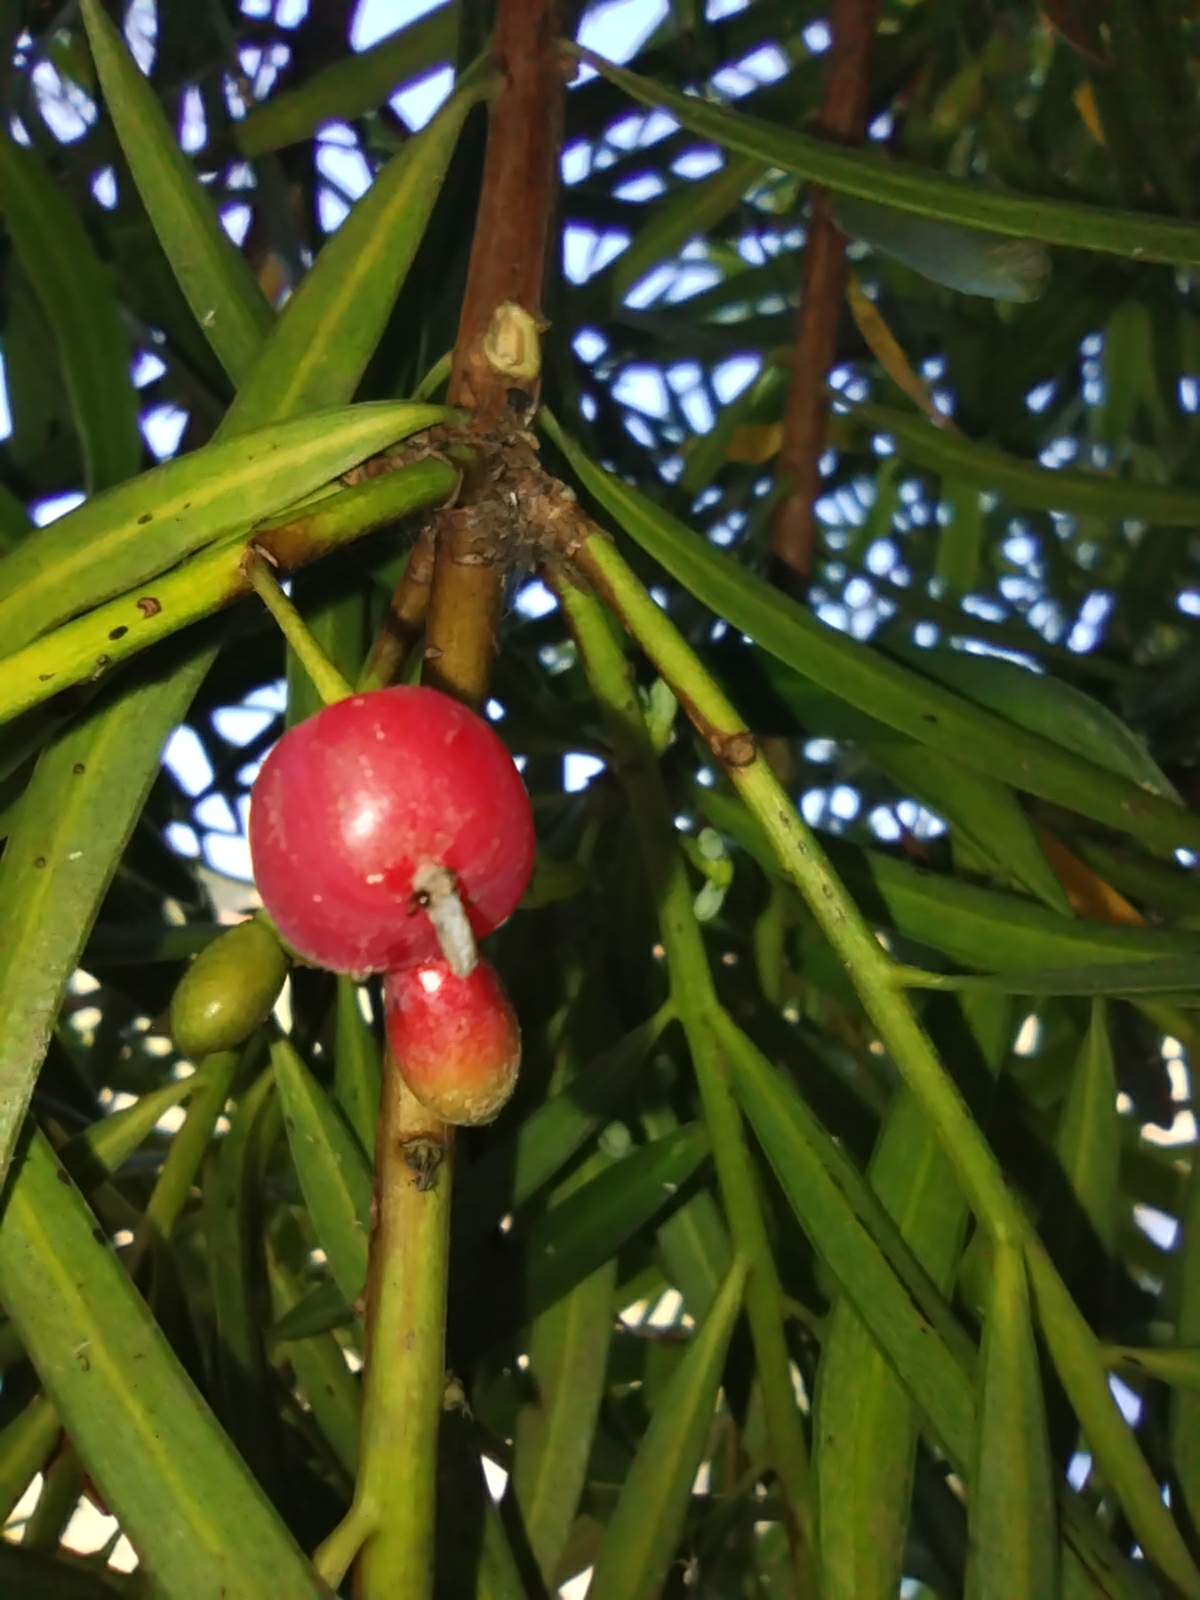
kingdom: Plantae
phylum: Tracheophyta
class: Pinopsida
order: Pinales
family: Podocarpaceae
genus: Podocarpus
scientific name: Podocarpus salignus
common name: Willow-leaf podocarp
